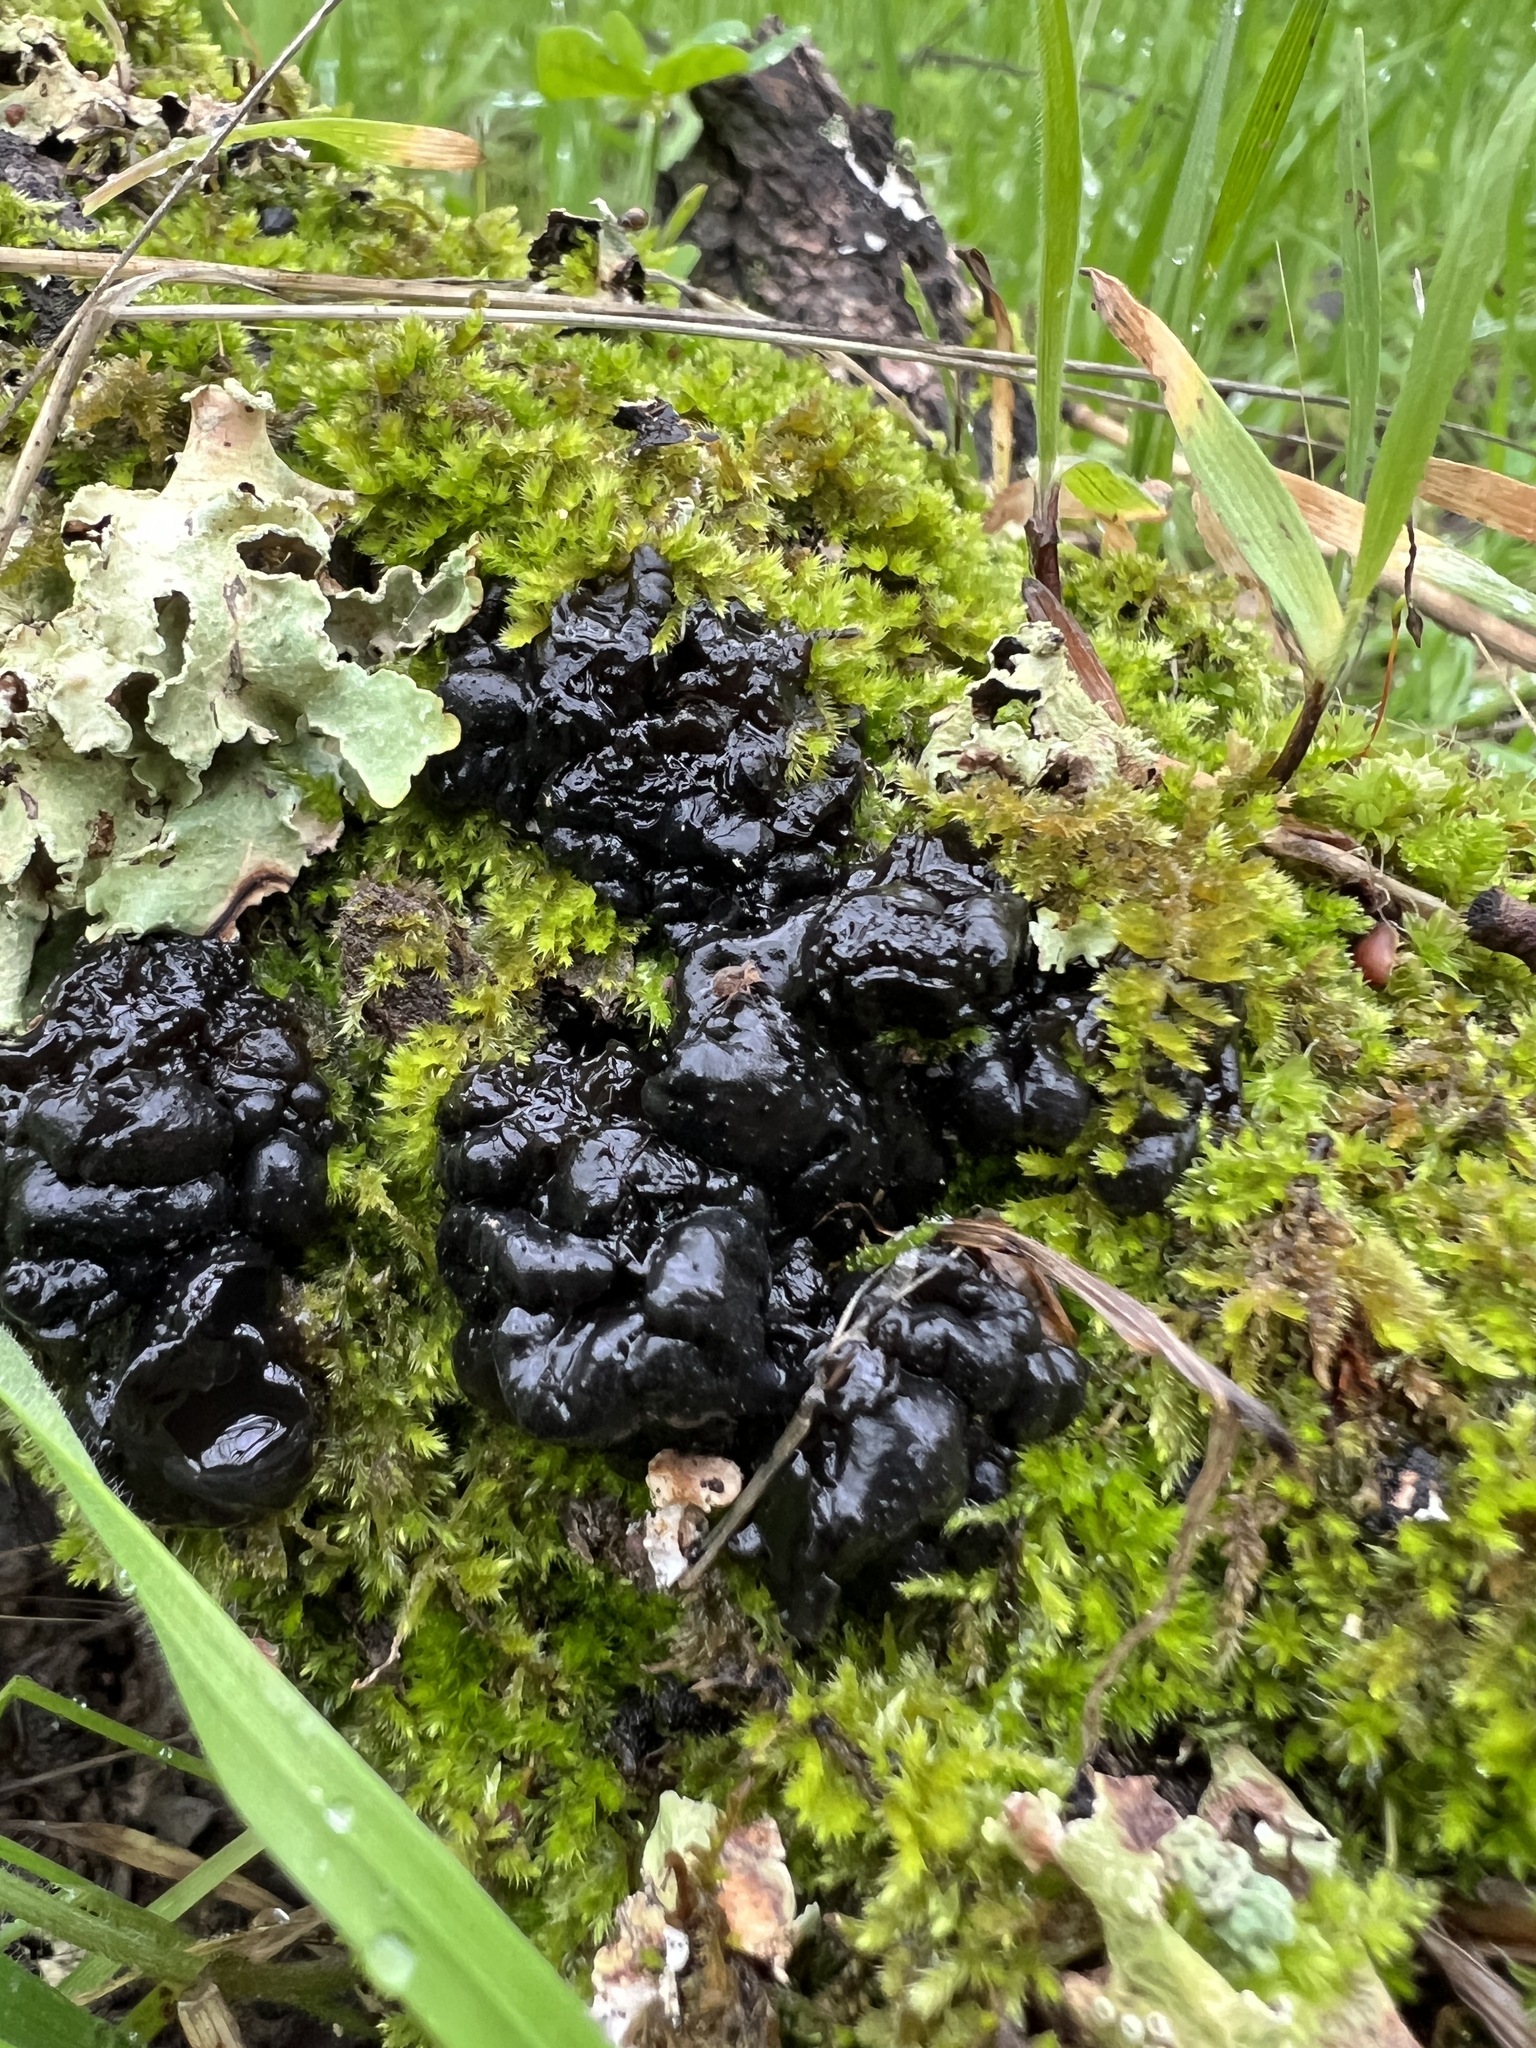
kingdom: Fungi
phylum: Basidiomycota
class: Agaricomycetes
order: Auriculariales
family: Auriculariaceae
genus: Exidia
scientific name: Exidia glandulosa
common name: Witches' butter
